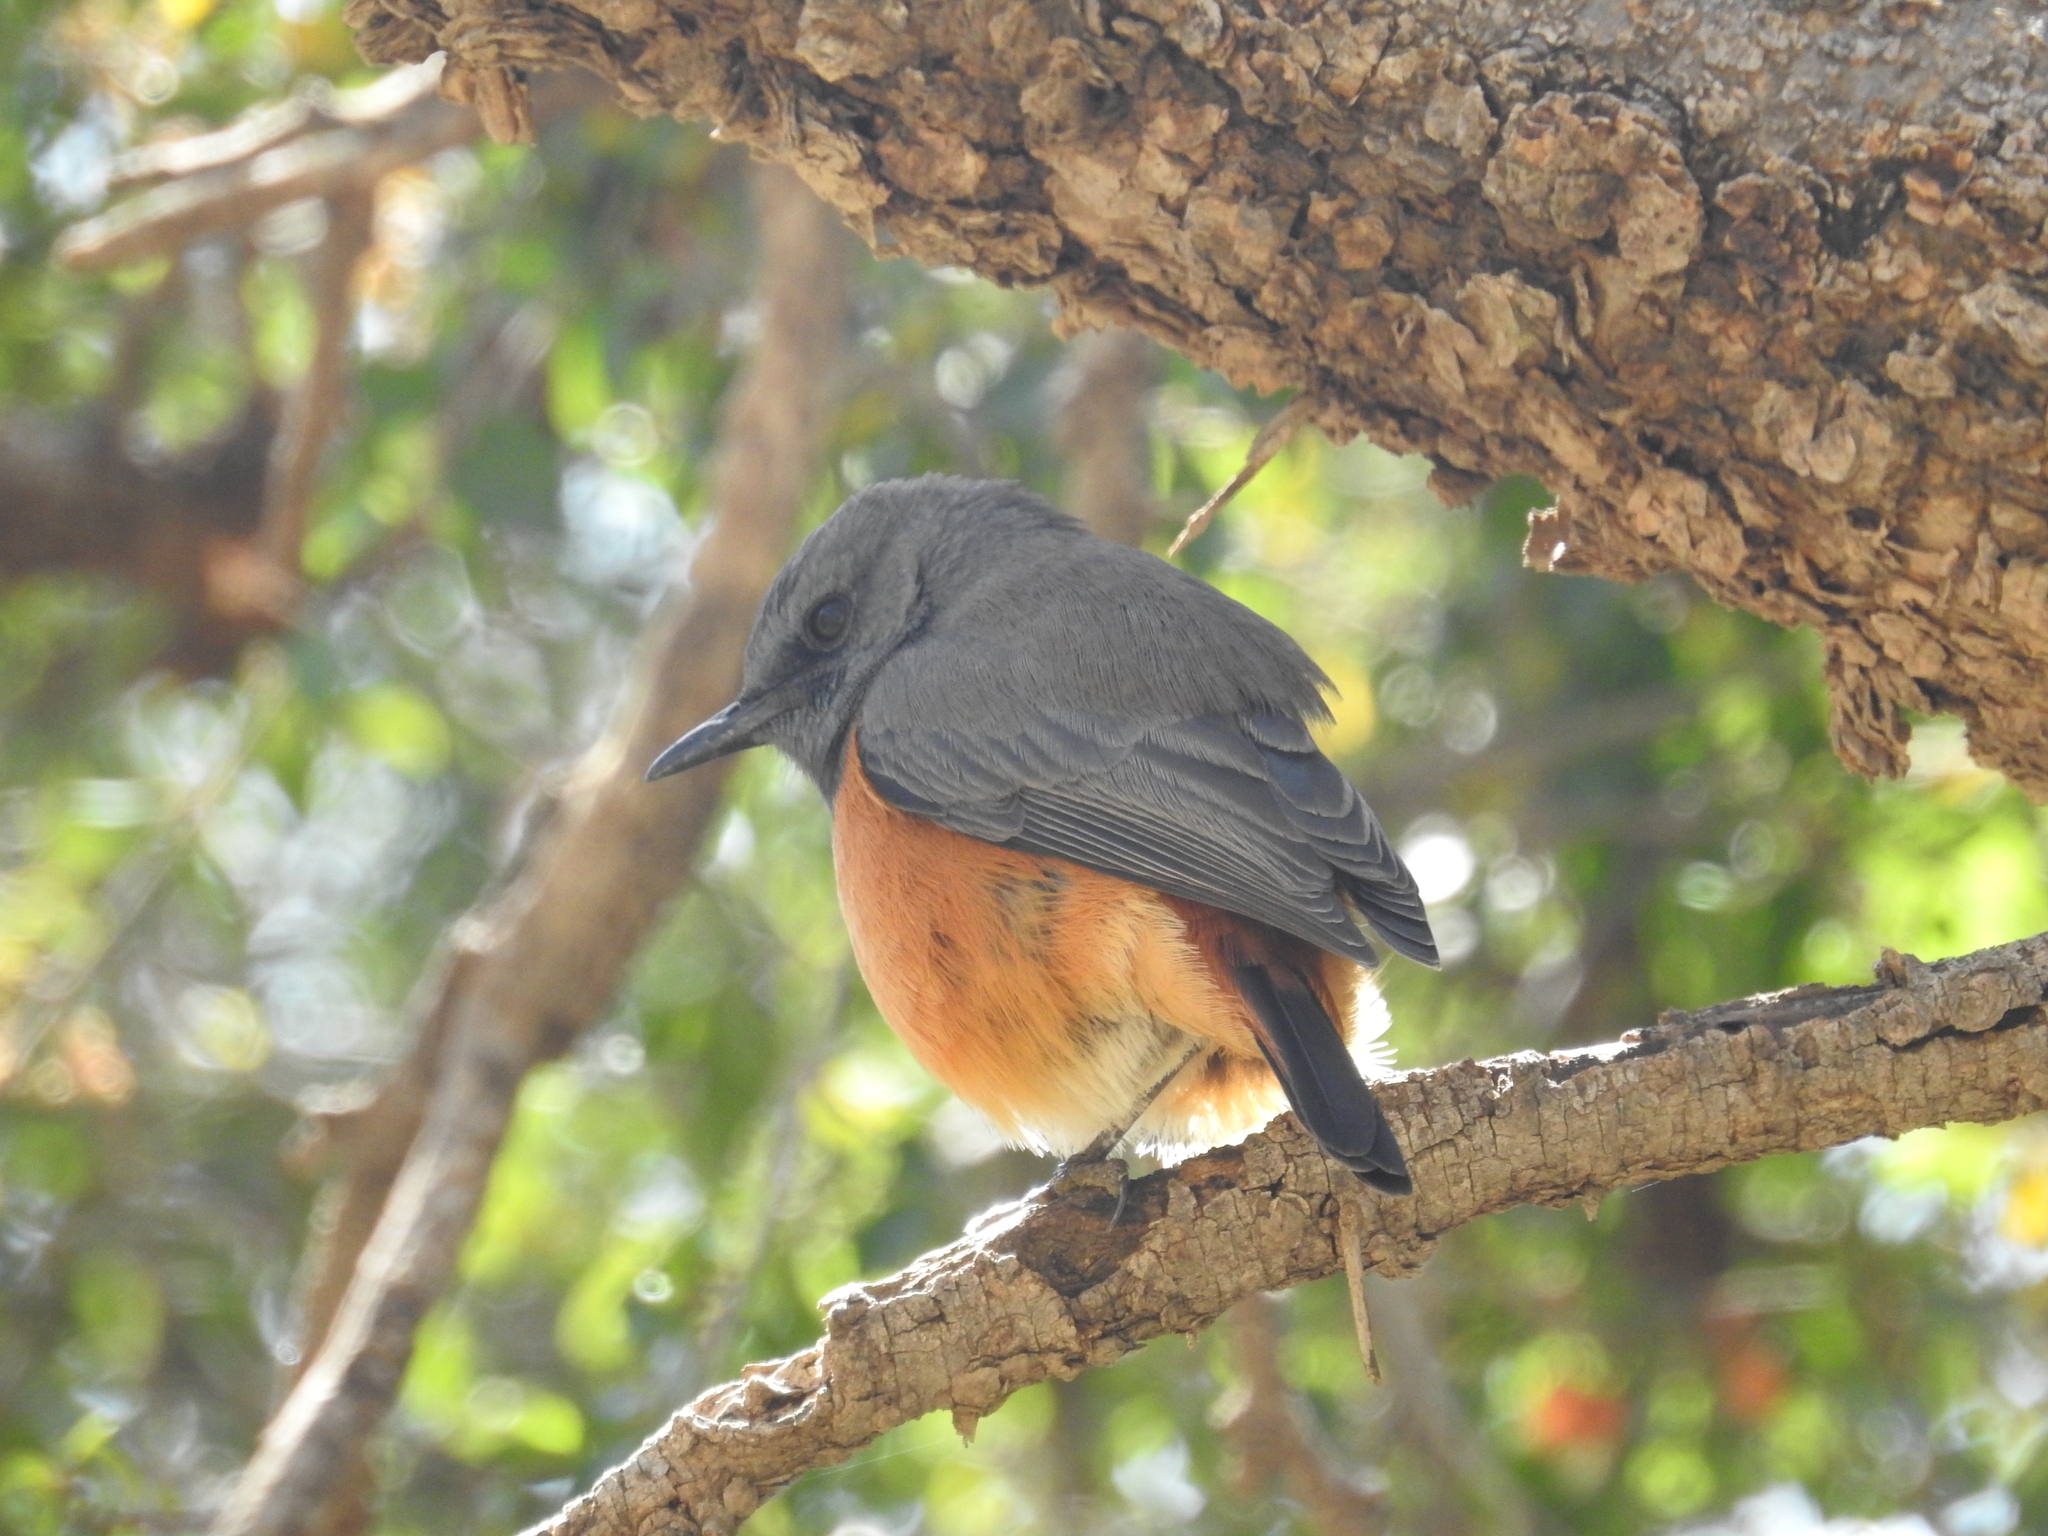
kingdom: Animalia
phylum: Chordata
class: Aves
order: Passeriformes
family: Muscicapidae
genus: Monticola
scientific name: Monticola rufocinereus
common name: Little rock thrush
